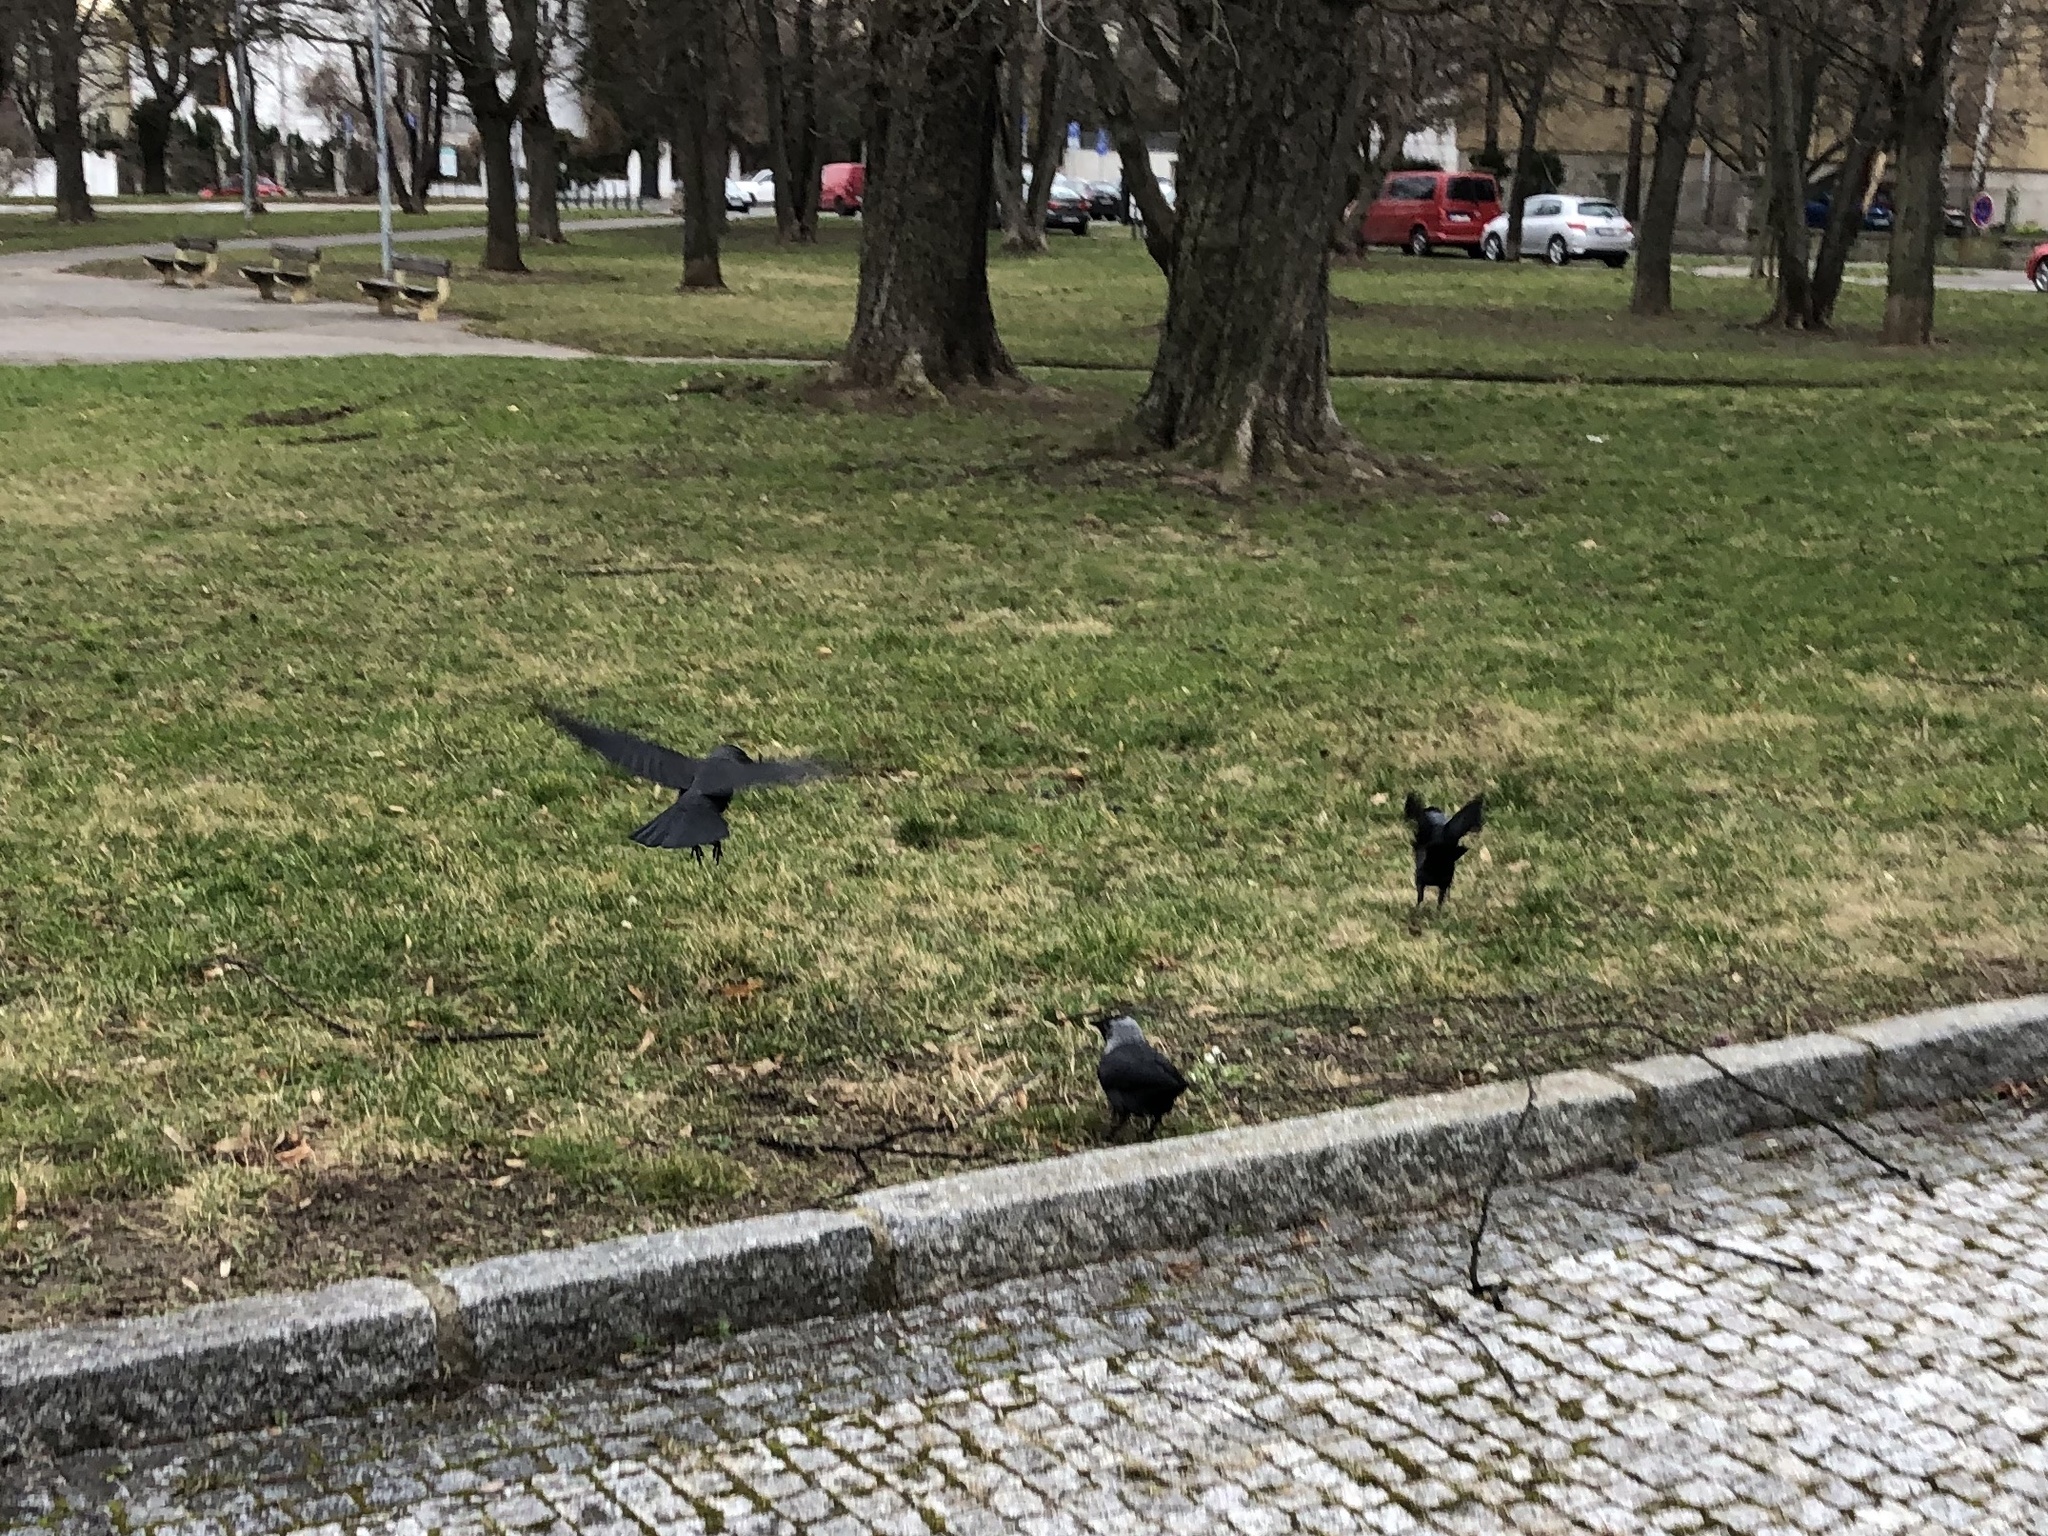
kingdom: Animalia
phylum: Chordata
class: Aves
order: Passeriformes
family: Corvidae
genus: Coloeus
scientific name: Coloeus monedula
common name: Western jackdaw
